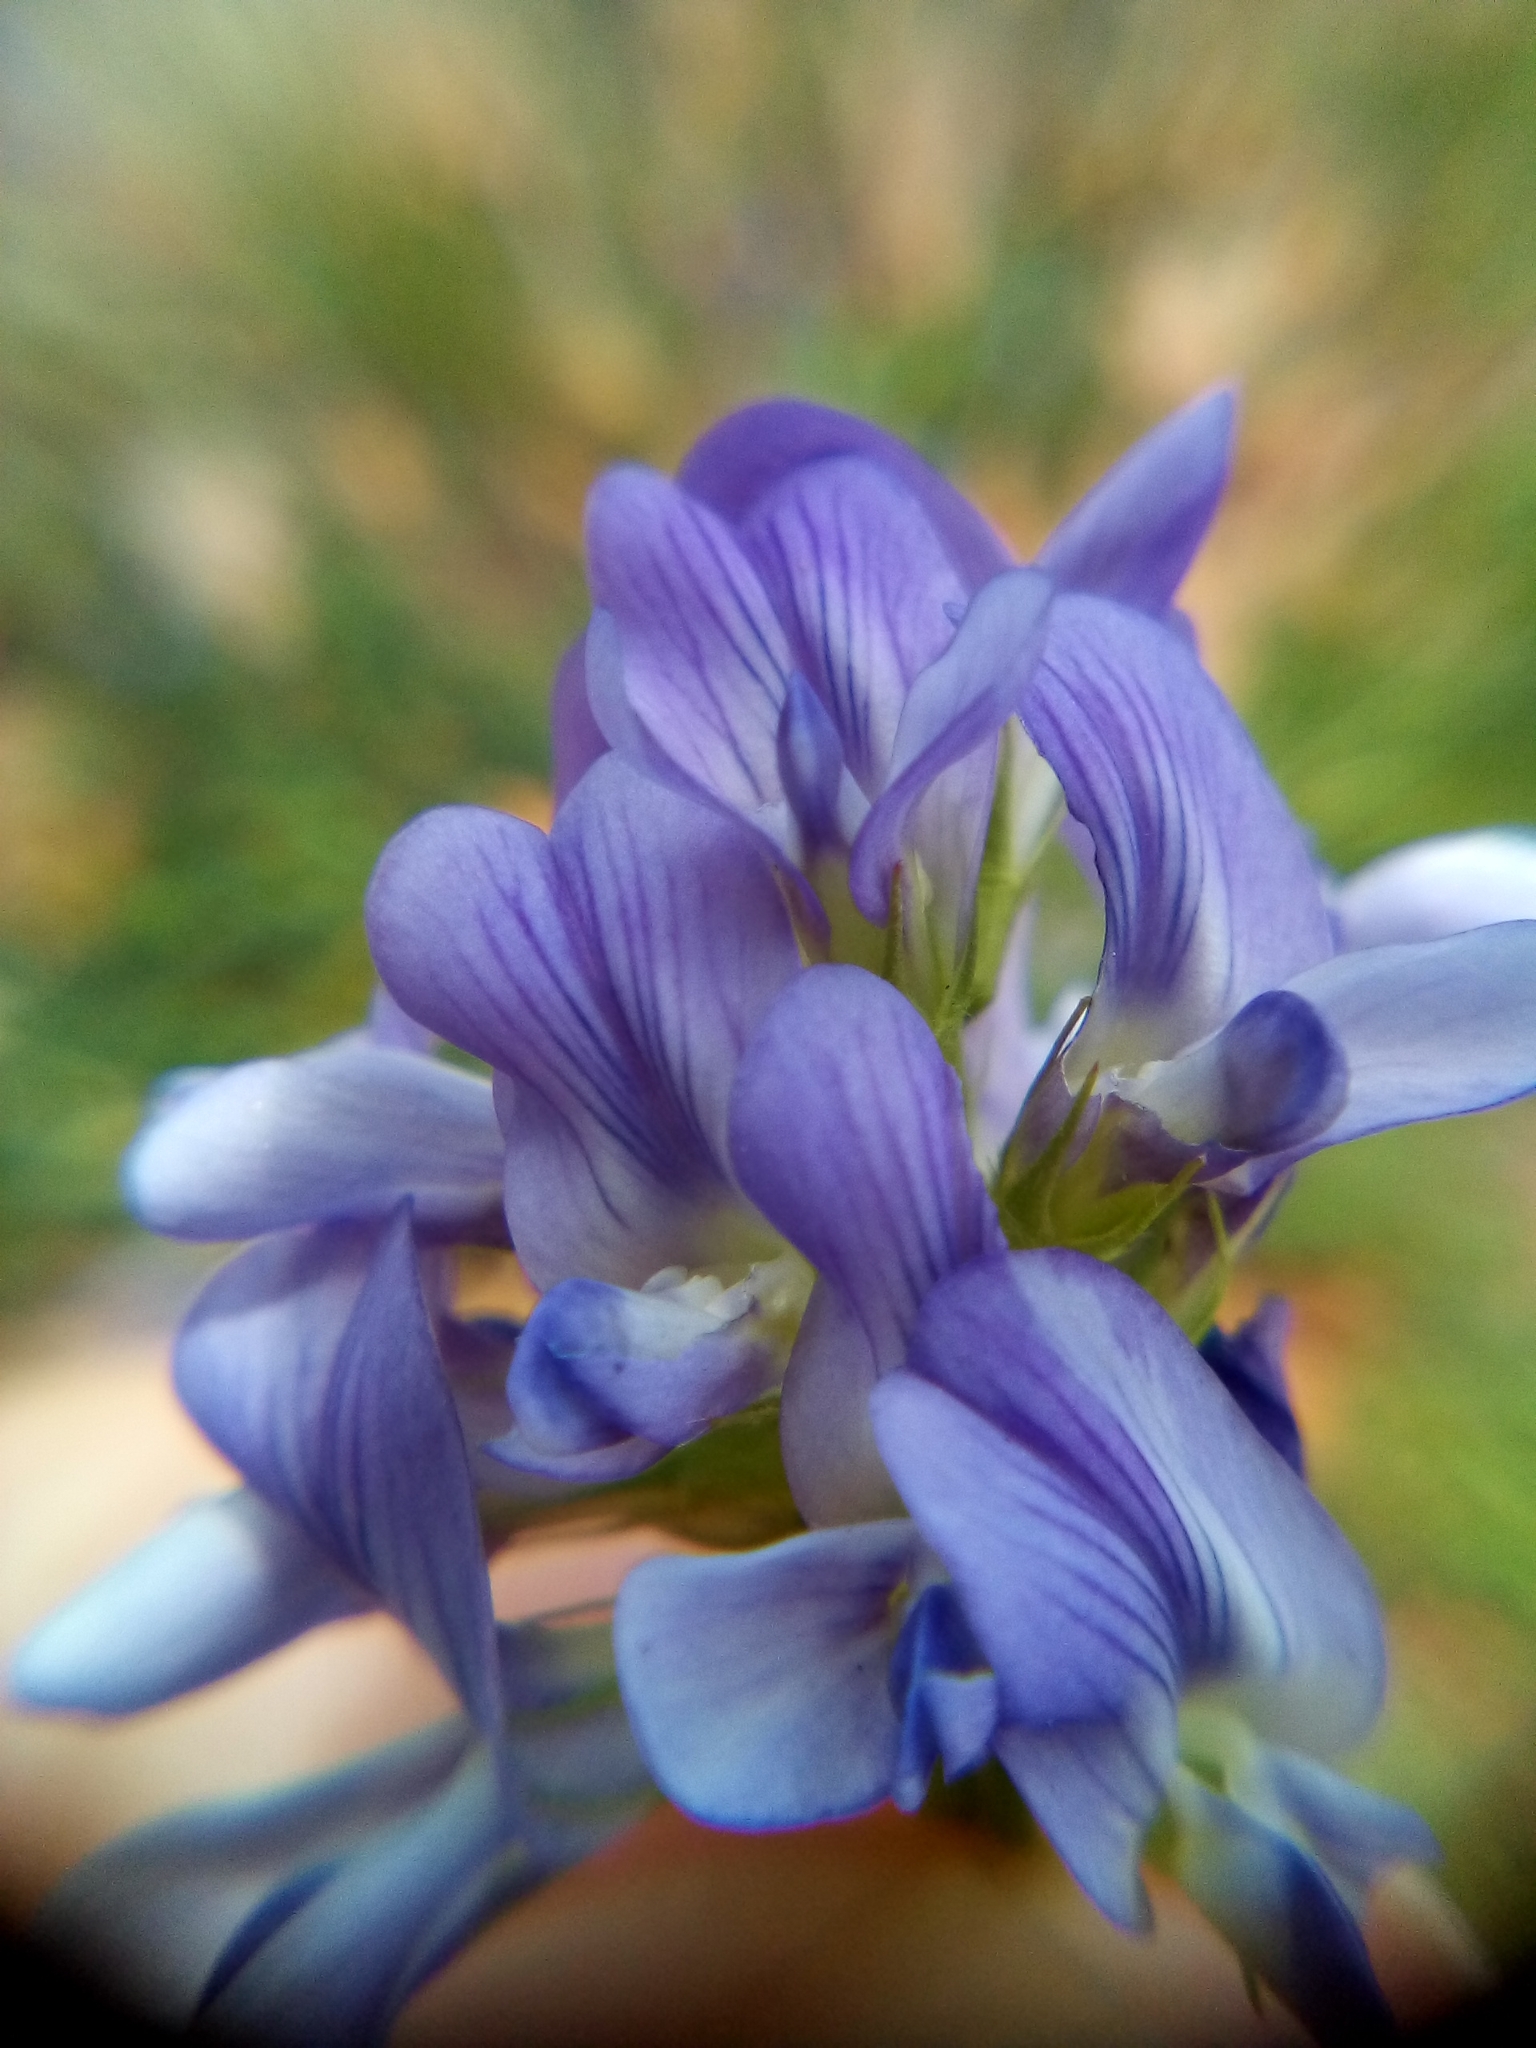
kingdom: Plantae
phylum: Tracheophyta
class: Magnoliopsida
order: Fabales
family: Fabaceae
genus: Medicago
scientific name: Medicago sativa
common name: Alfalfa
